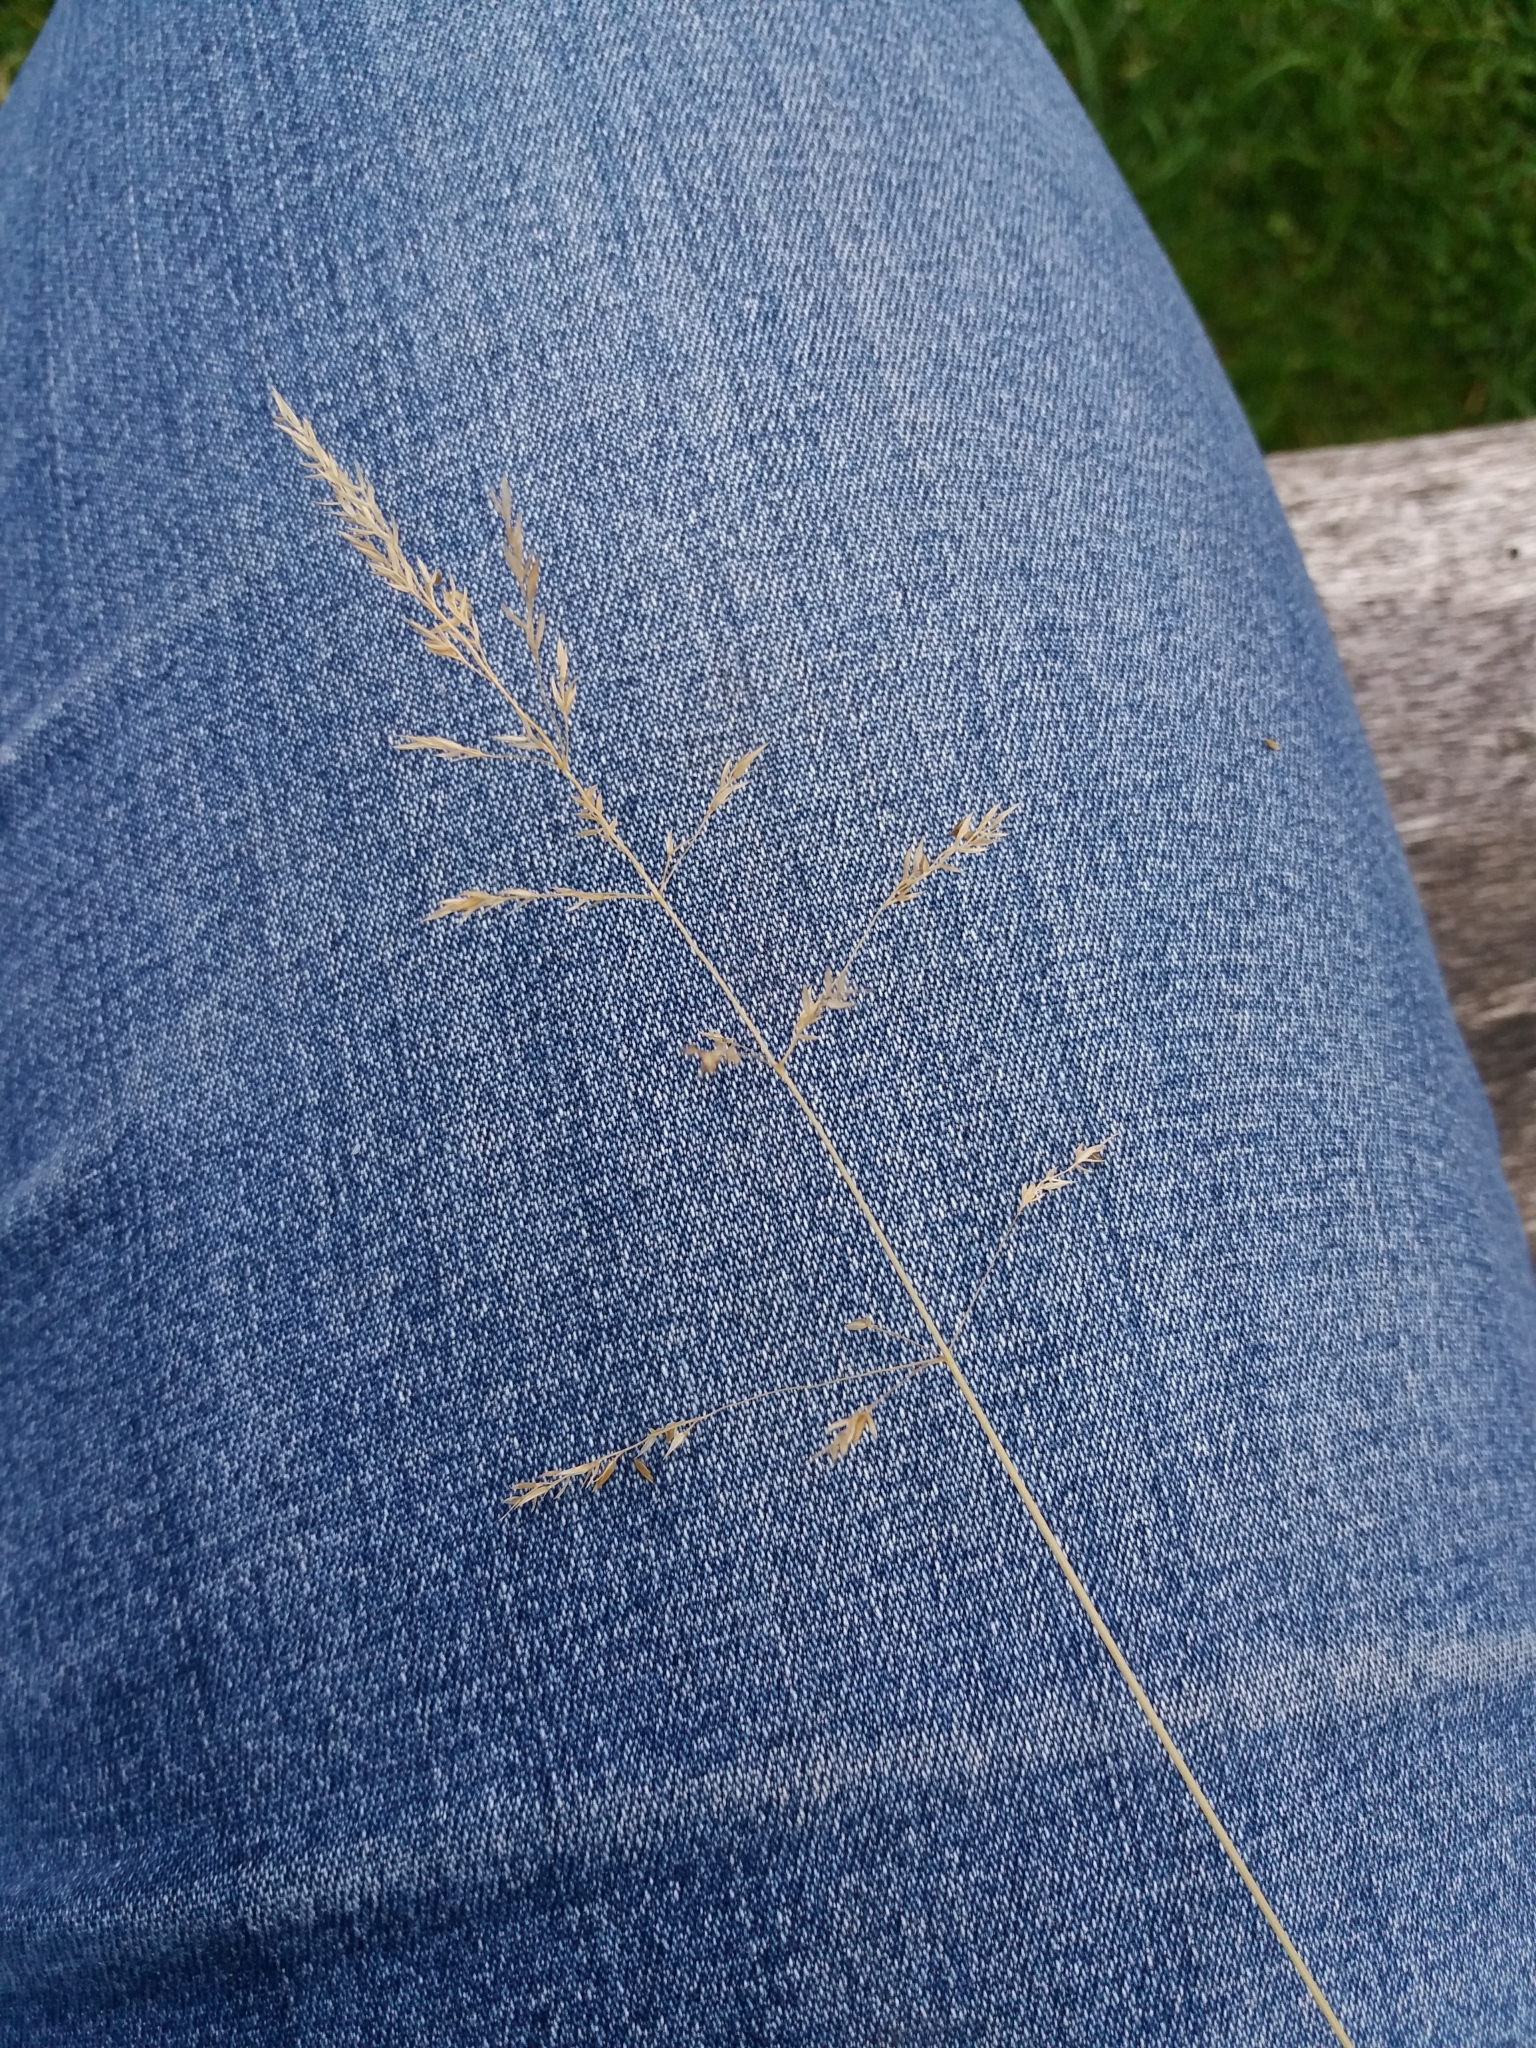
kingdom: Plantae
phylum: Tracheophyta
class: Liliopsida
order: Poales
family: Poaceae
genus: Poa
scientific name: Poa trivialis
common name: Rough bluegrass
